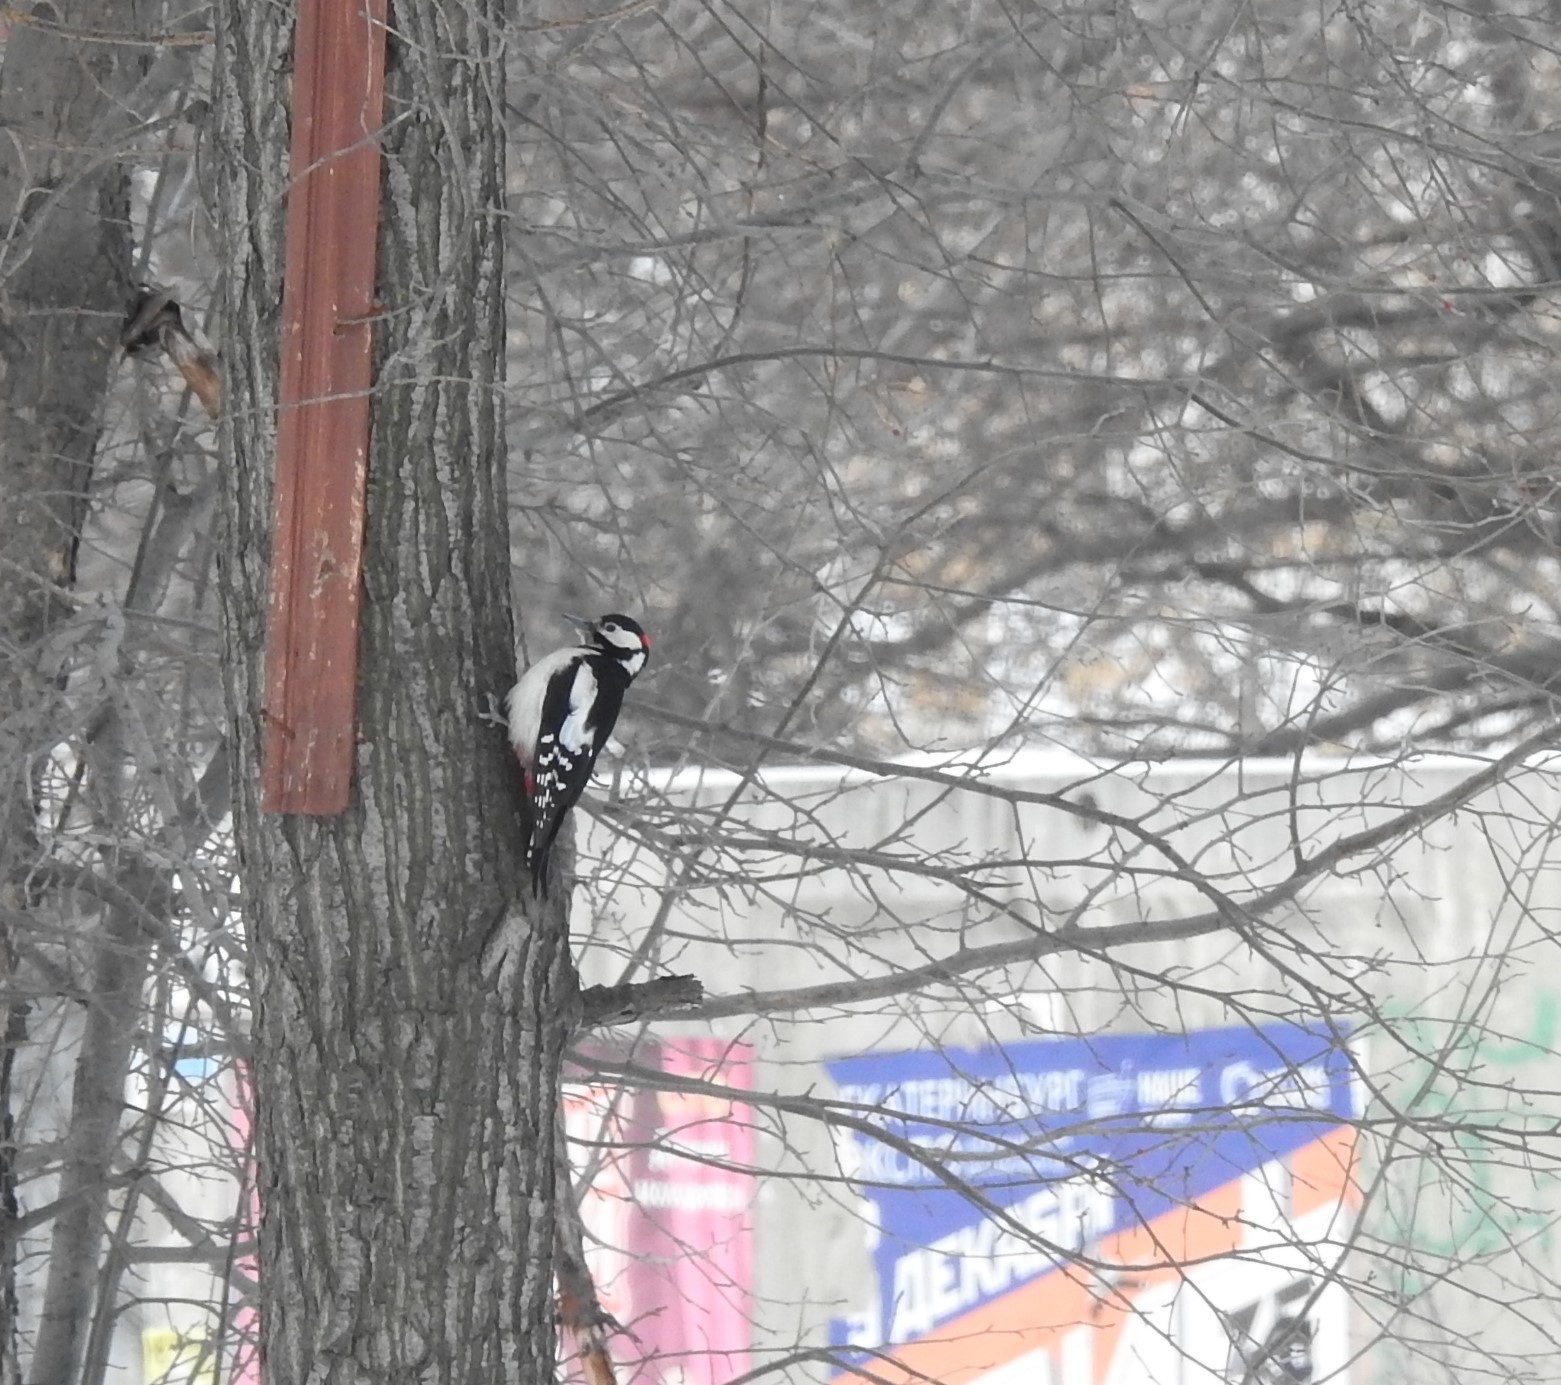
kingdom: Animalia
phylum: Chordata
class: Aves
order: Piciformes
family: Picidae
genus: Dendrocopos
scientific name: Dendrocopos major
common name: Great spotted woodpecker
